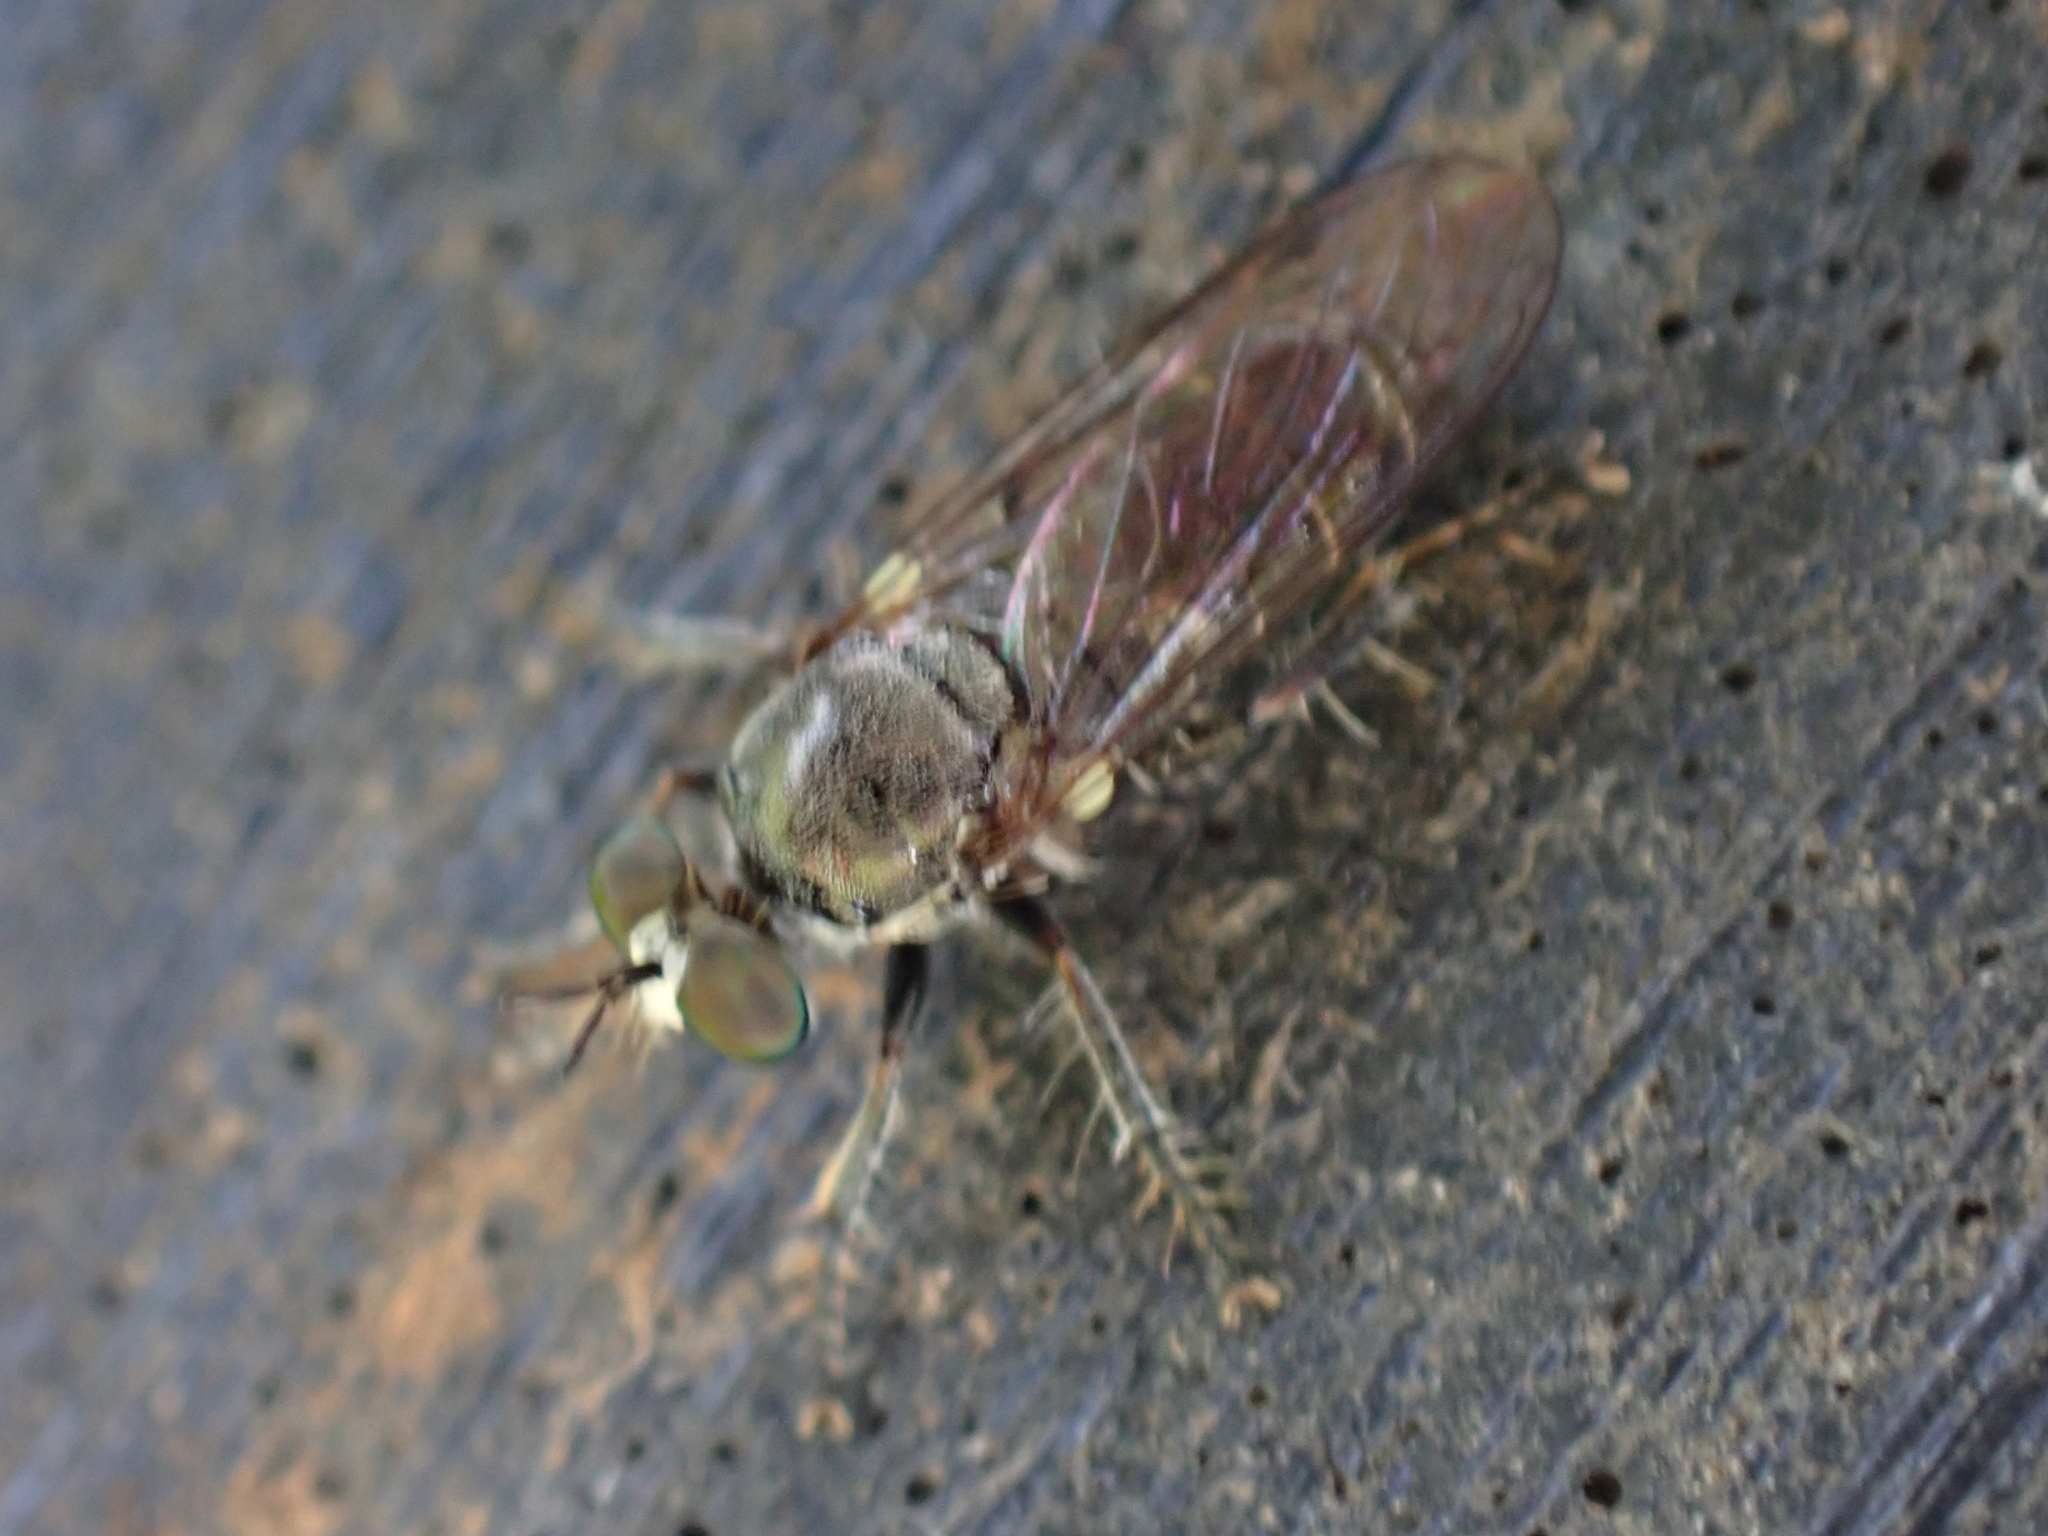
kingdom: Animalia
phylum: Arthropoda
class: Insecta
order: Diptera
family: Asilidae
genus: Atomosia
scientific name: Atomosia puella
